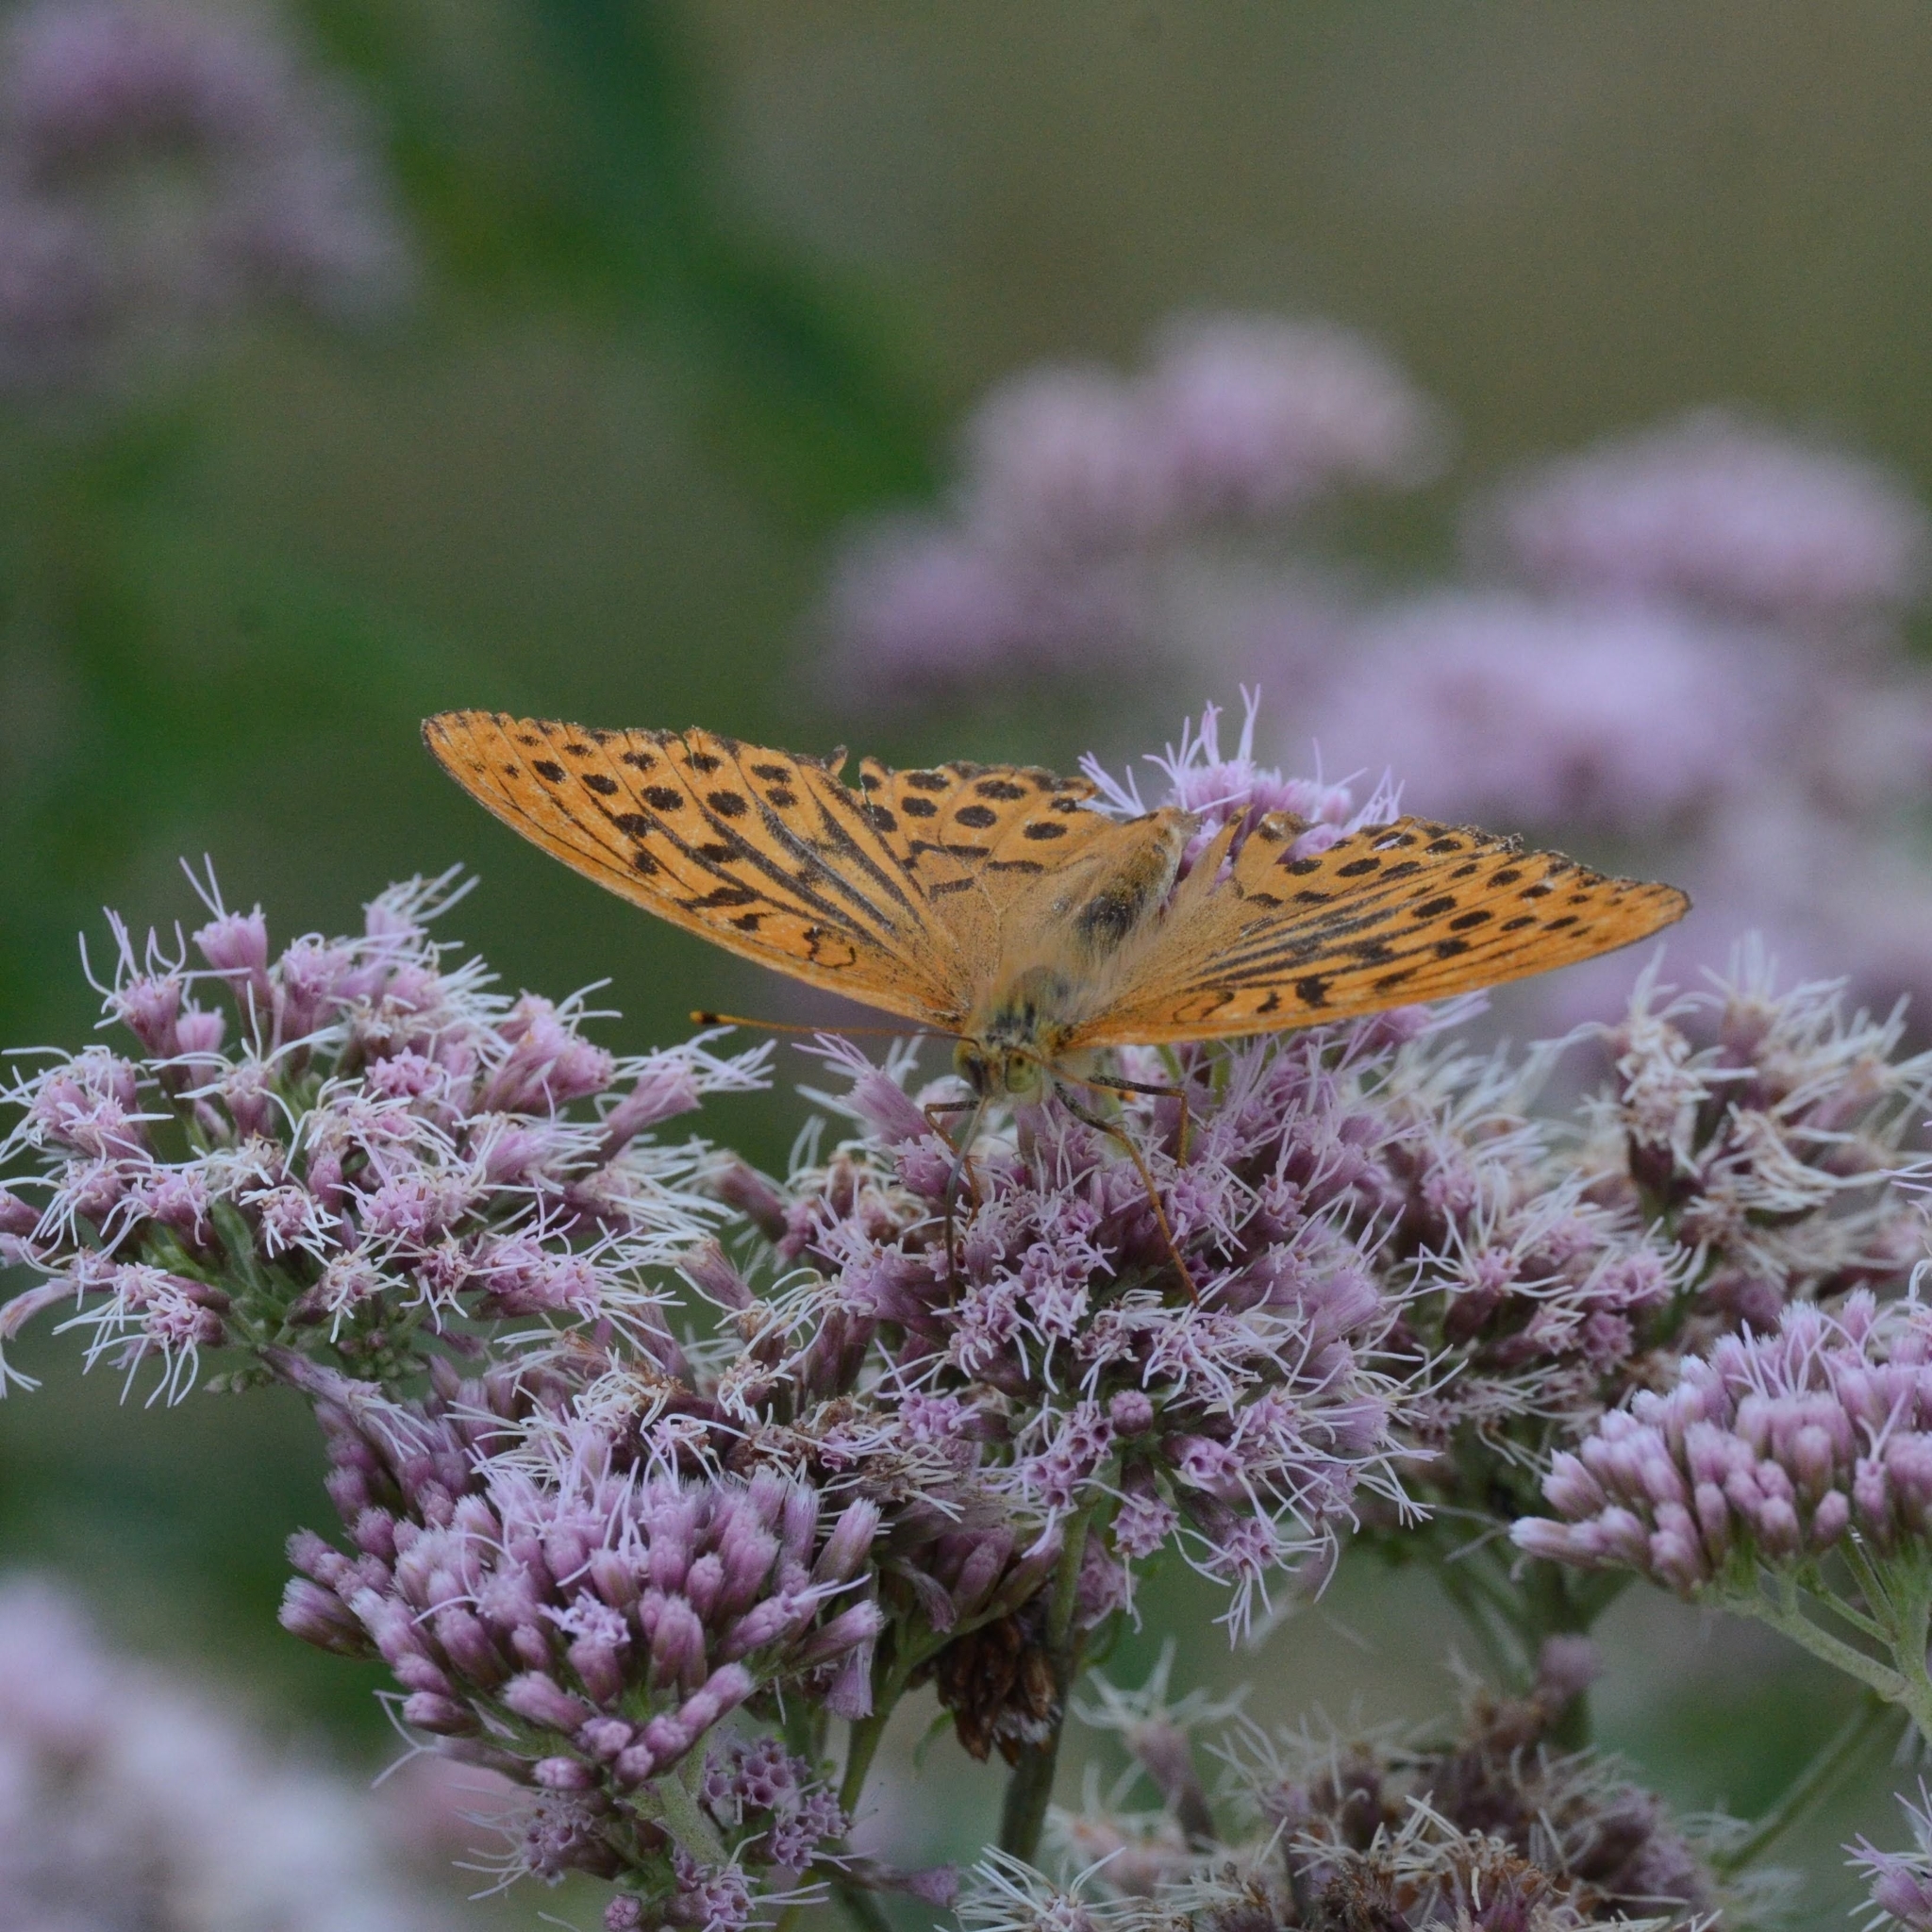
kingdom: Animalia
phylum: Arthropoda
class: Insecta
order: Lepidoptera
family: Nymphalidae
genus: Argynnis
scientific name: Argynnis paphia
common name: Silver-washed fritillary
